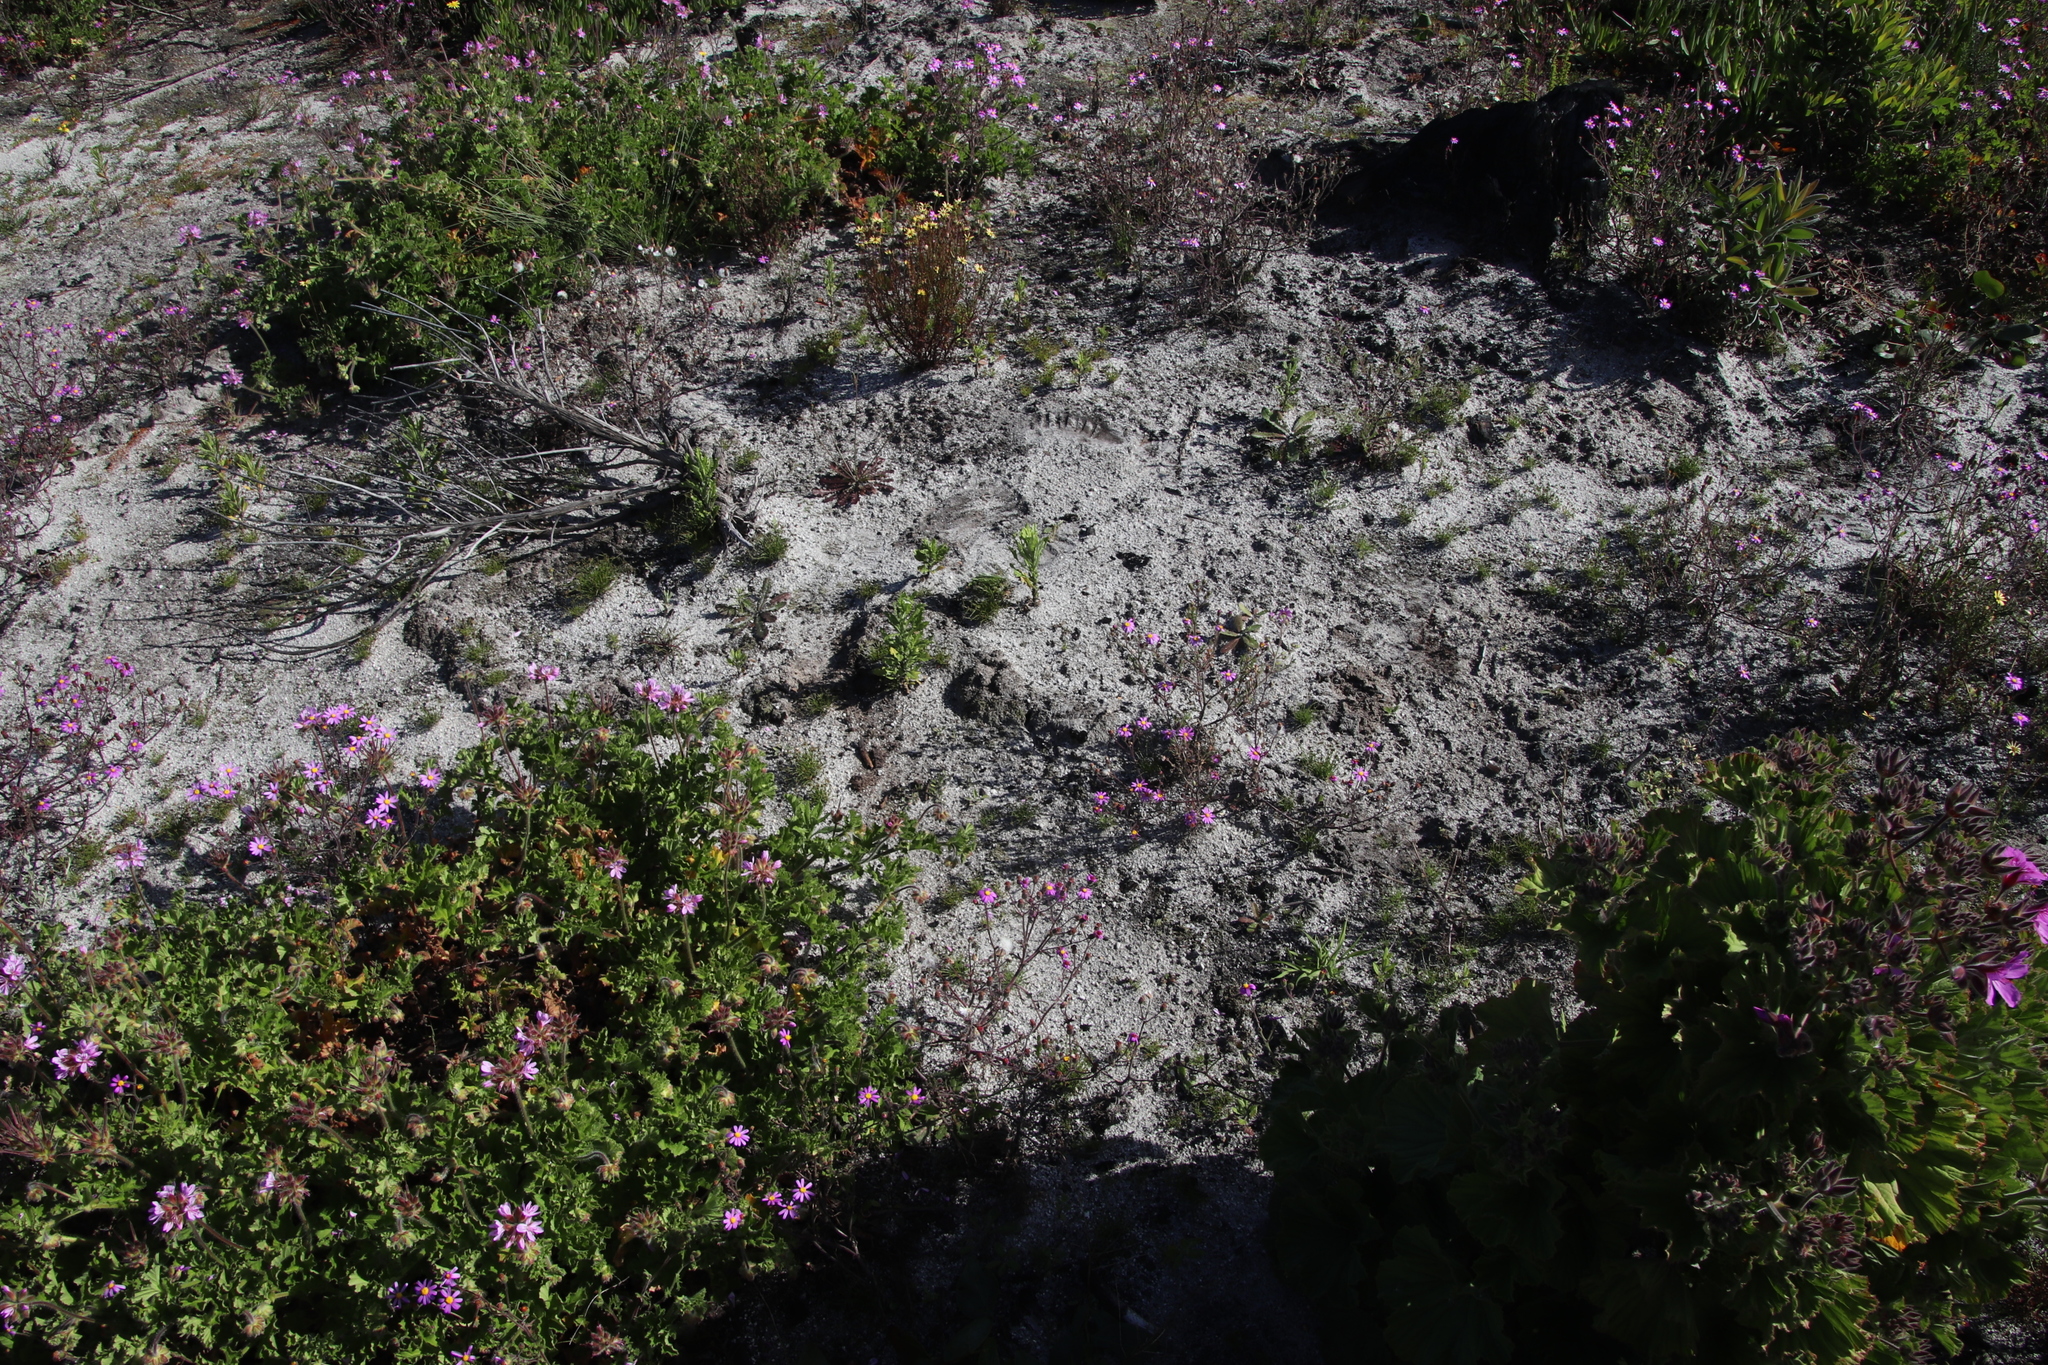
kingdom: Animalia
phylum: Chordata
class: Mammalia
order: Afrosoricida
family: Chrysochloridae
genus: Chrysochloris
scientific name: Chrysochloris asiatica
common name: Cape golden mole
